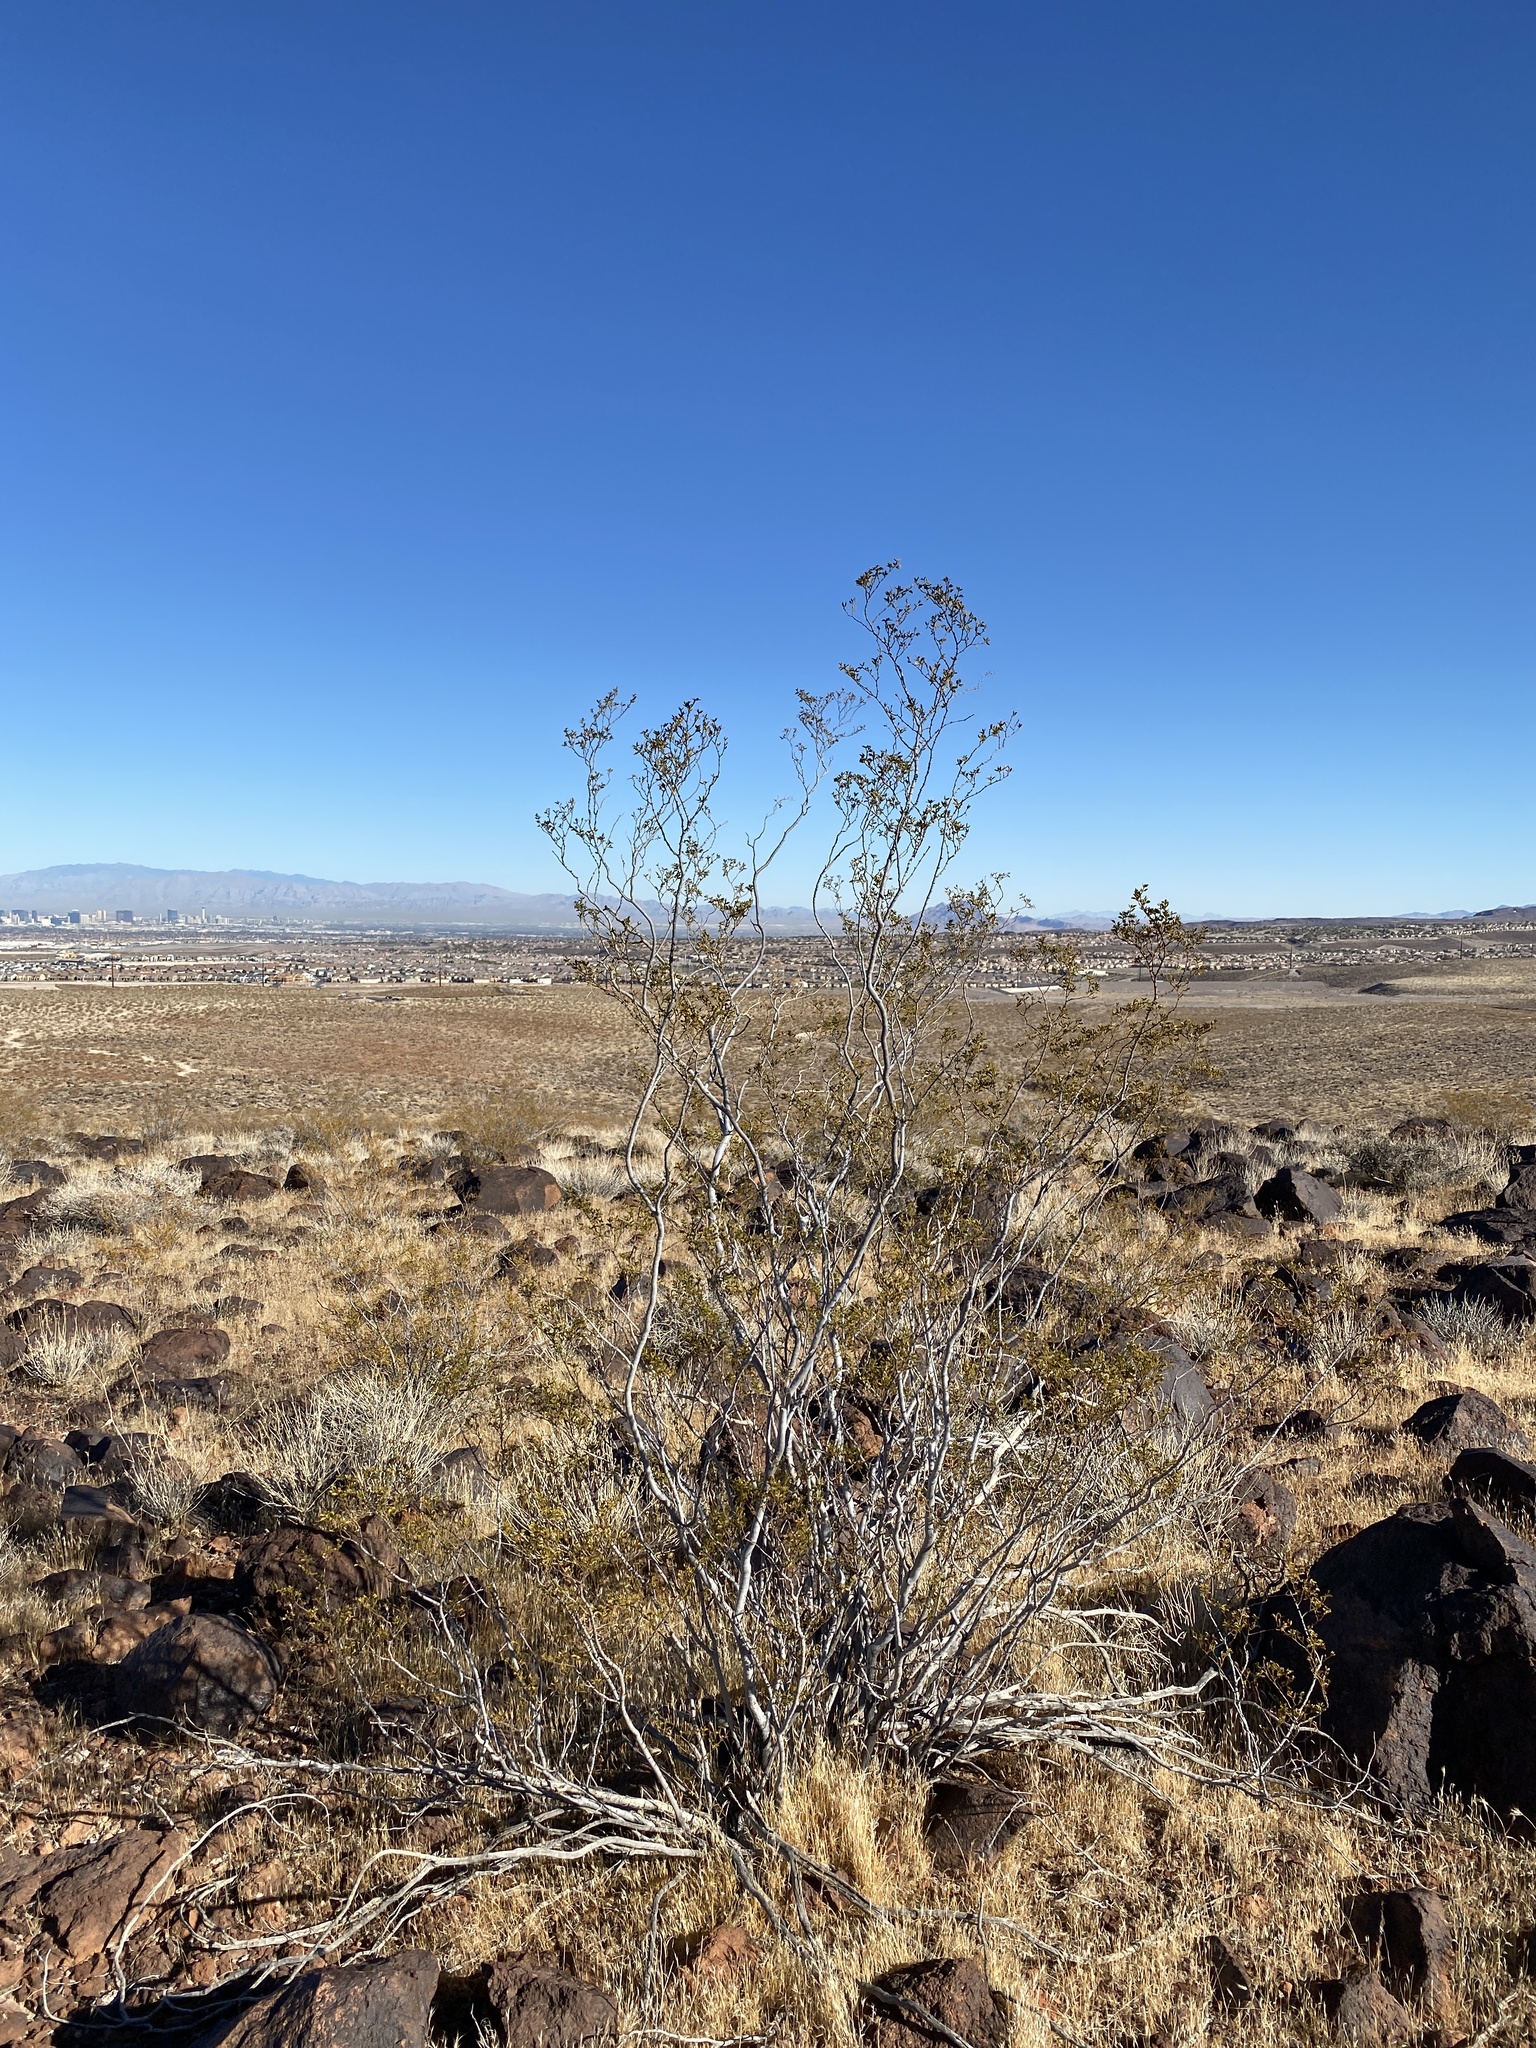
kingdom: Plantae
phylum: Tracheophyta
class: Magnoliopsida
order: Zygophyllales
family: Zygophyllaceae
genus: Larrea
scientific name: Larrea tridentata
